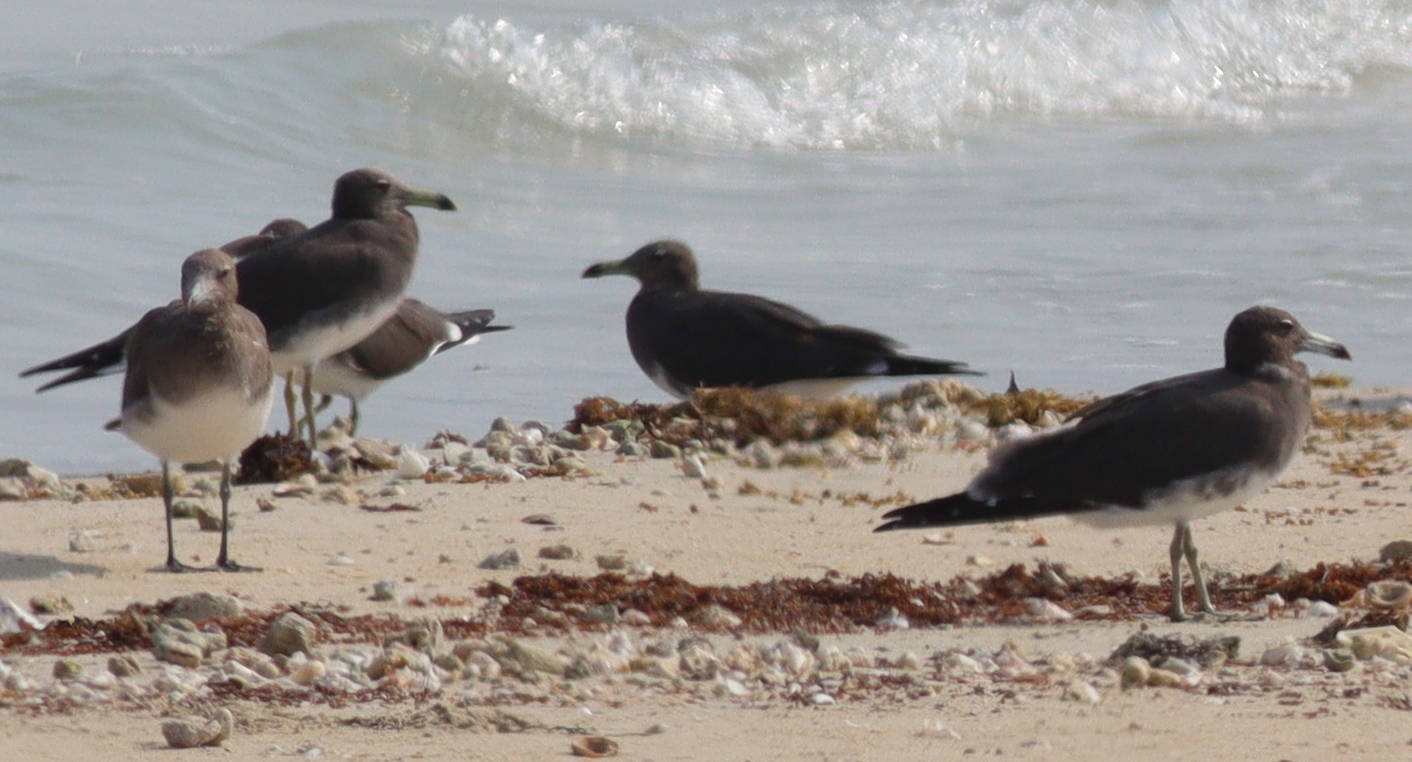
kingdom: Animalia
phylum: Chordata
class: Aves
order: Charadriiformes
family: Laridae
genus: Ichthyaetus
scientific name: Ichthyaetus hemprichii
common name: Sooty gull
